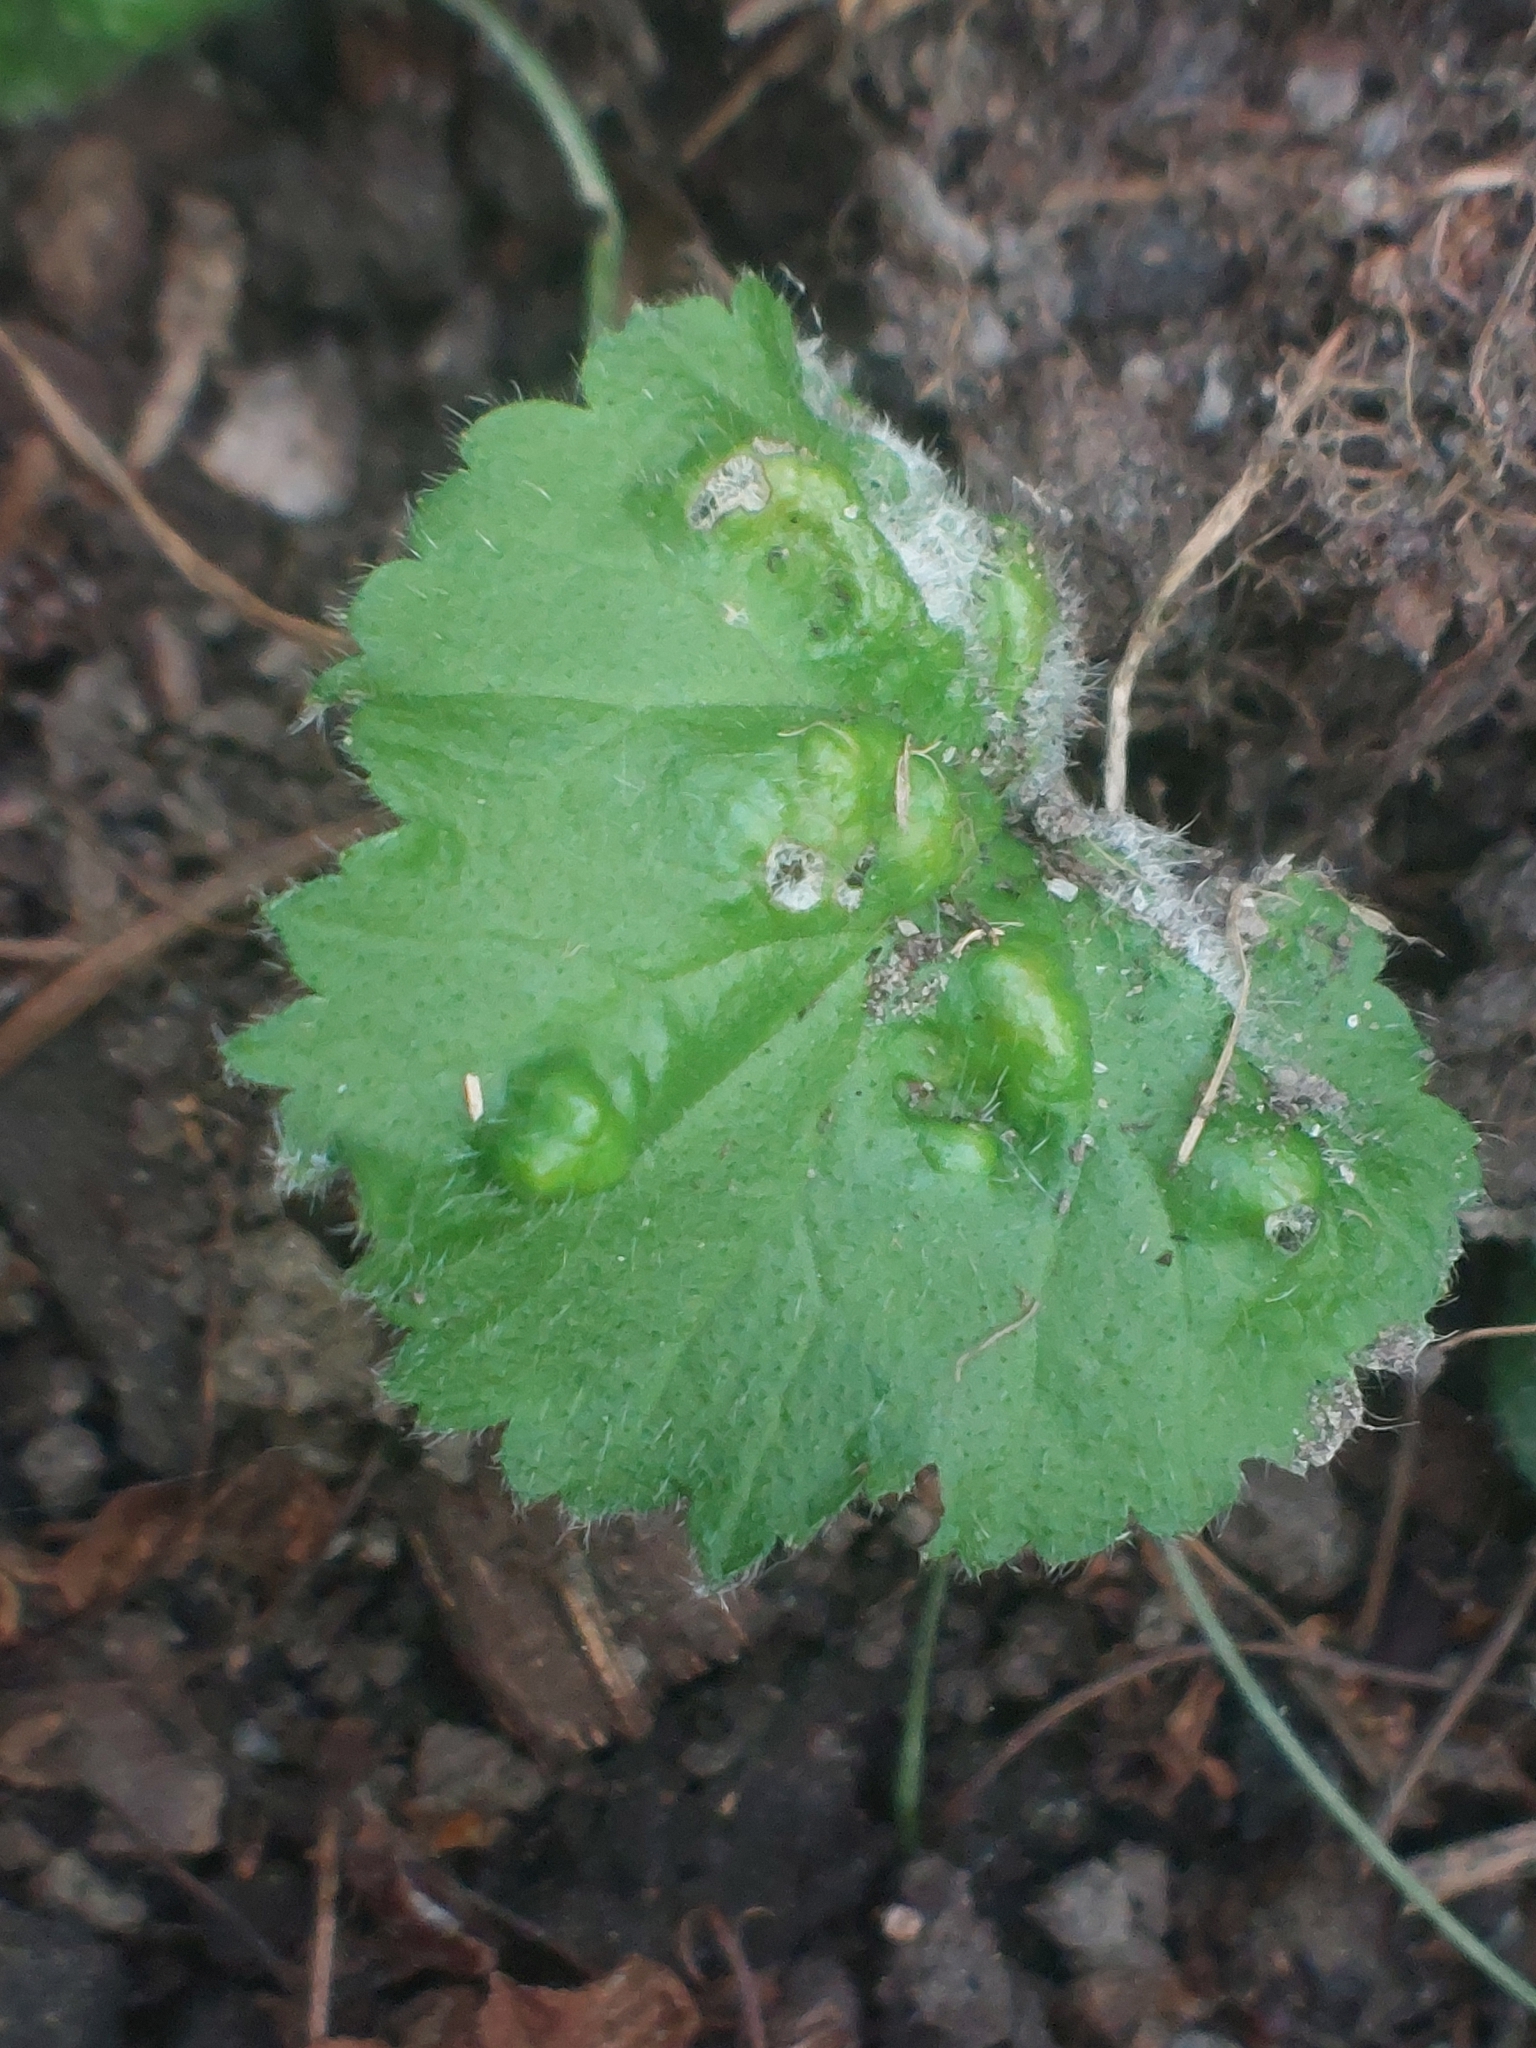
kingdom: Animalia
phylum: Arthropoda
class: Arachnida
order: Trombidiformes
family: Eriophyidae
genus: Cecidophyes
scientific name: Cecidophyes nudus
